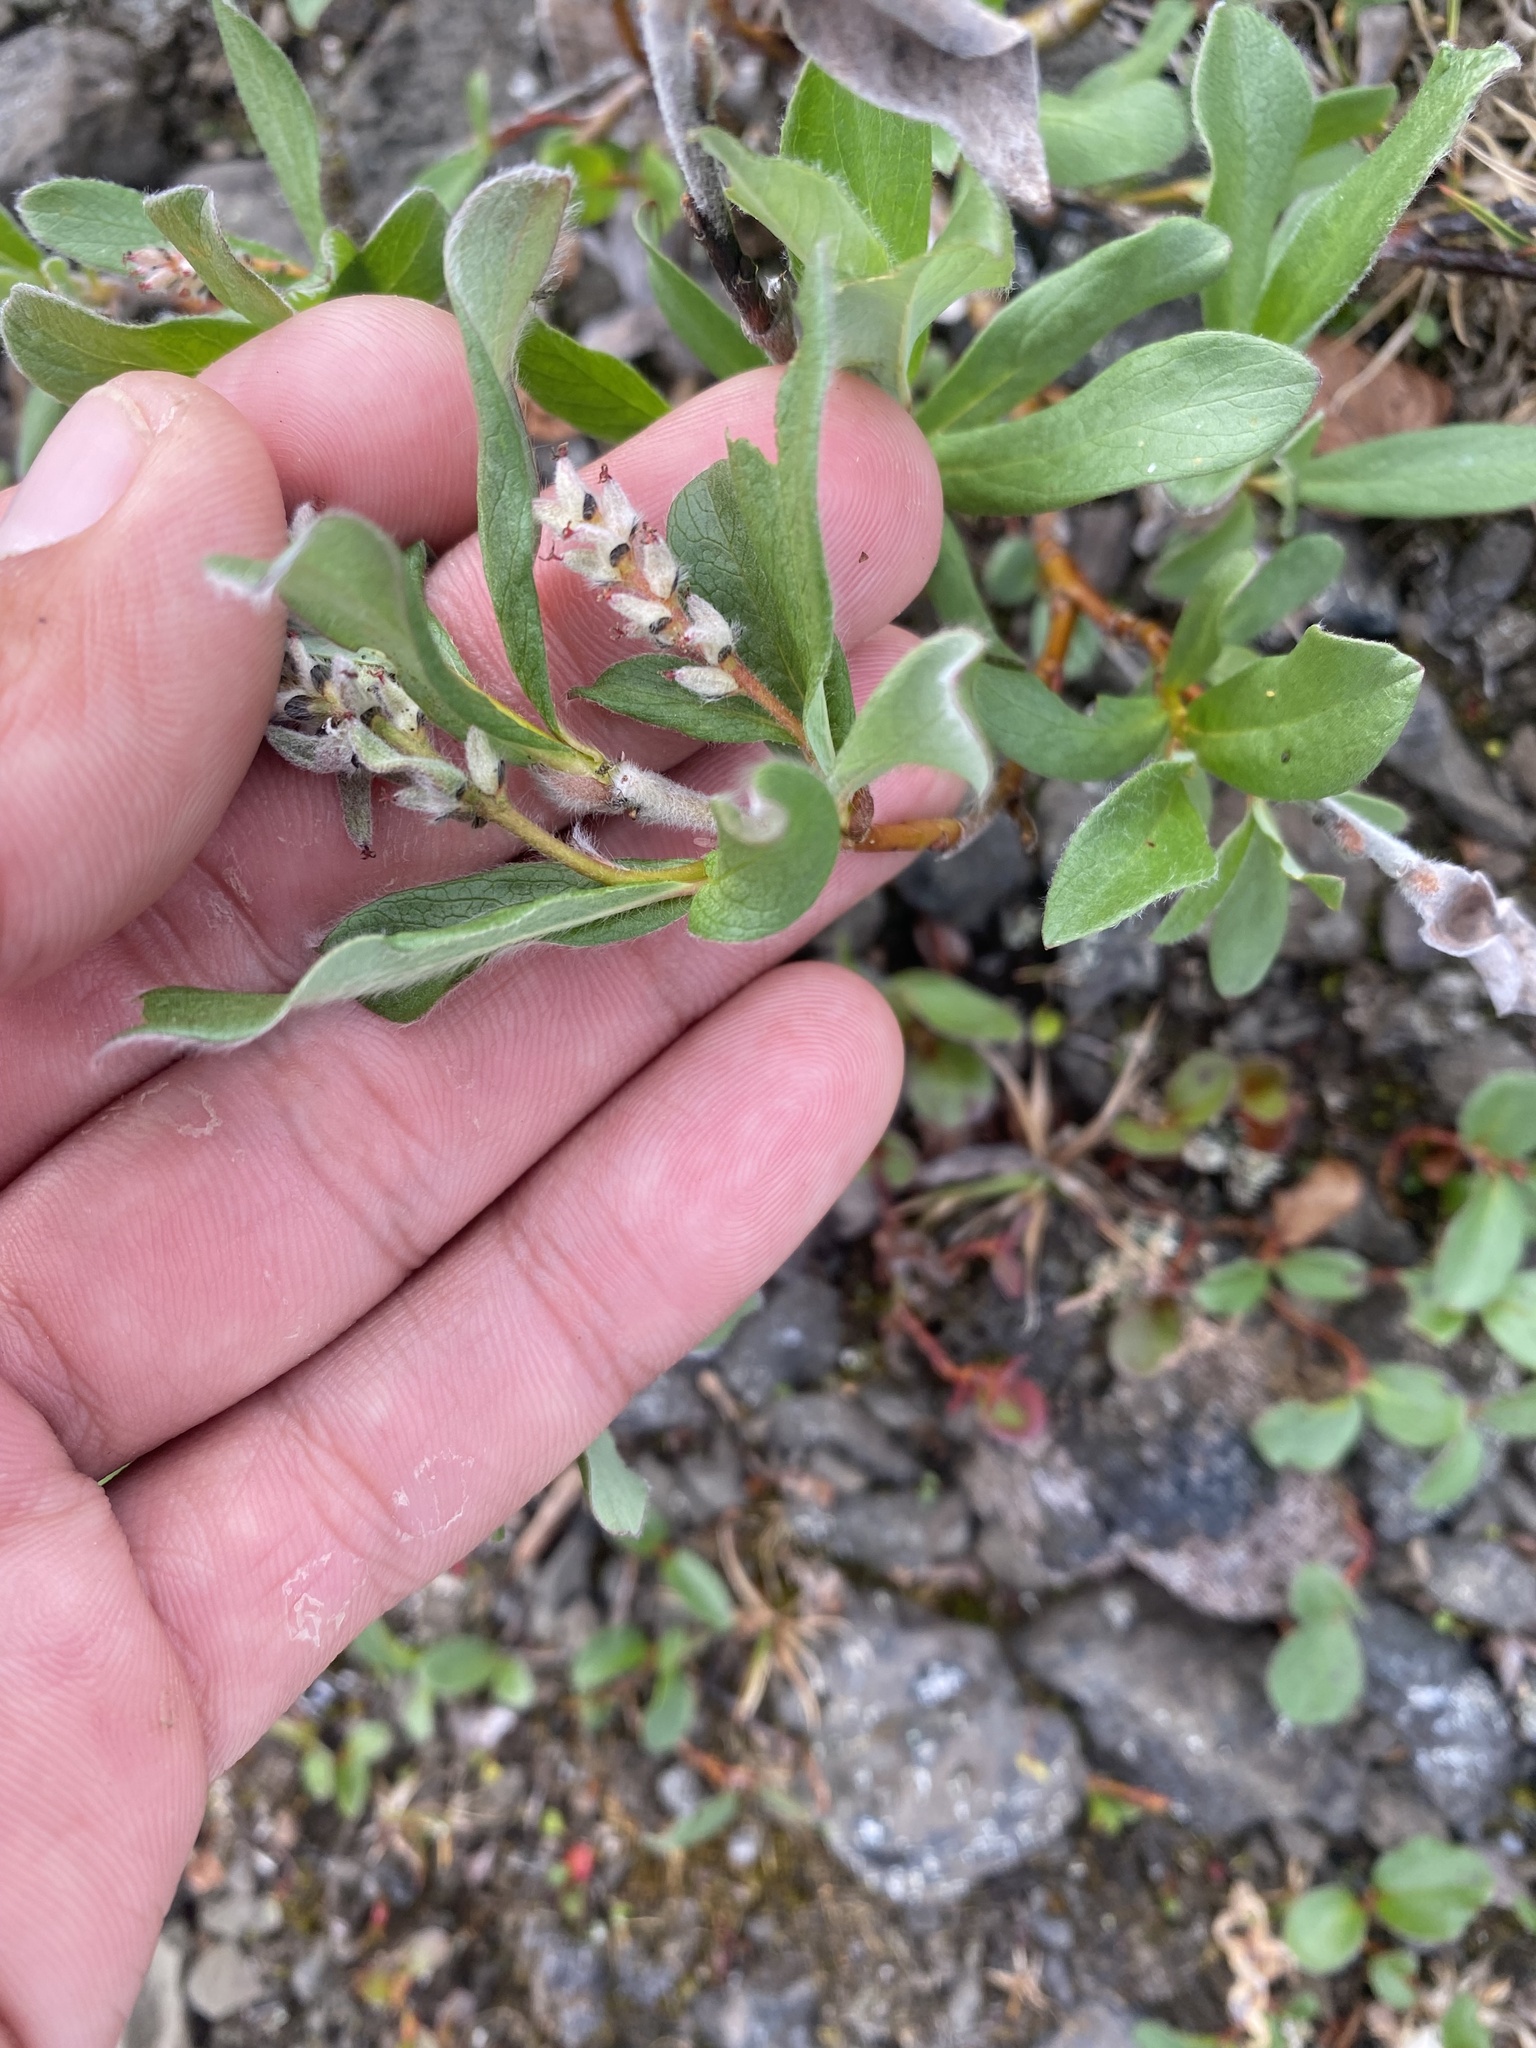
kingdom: Plantae
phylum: Tracheophyta
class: Magnoliopsida
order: Malpighiales
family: Salicaceae
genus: Salix
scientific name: Salix reptans
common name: Arctic creeping willow
